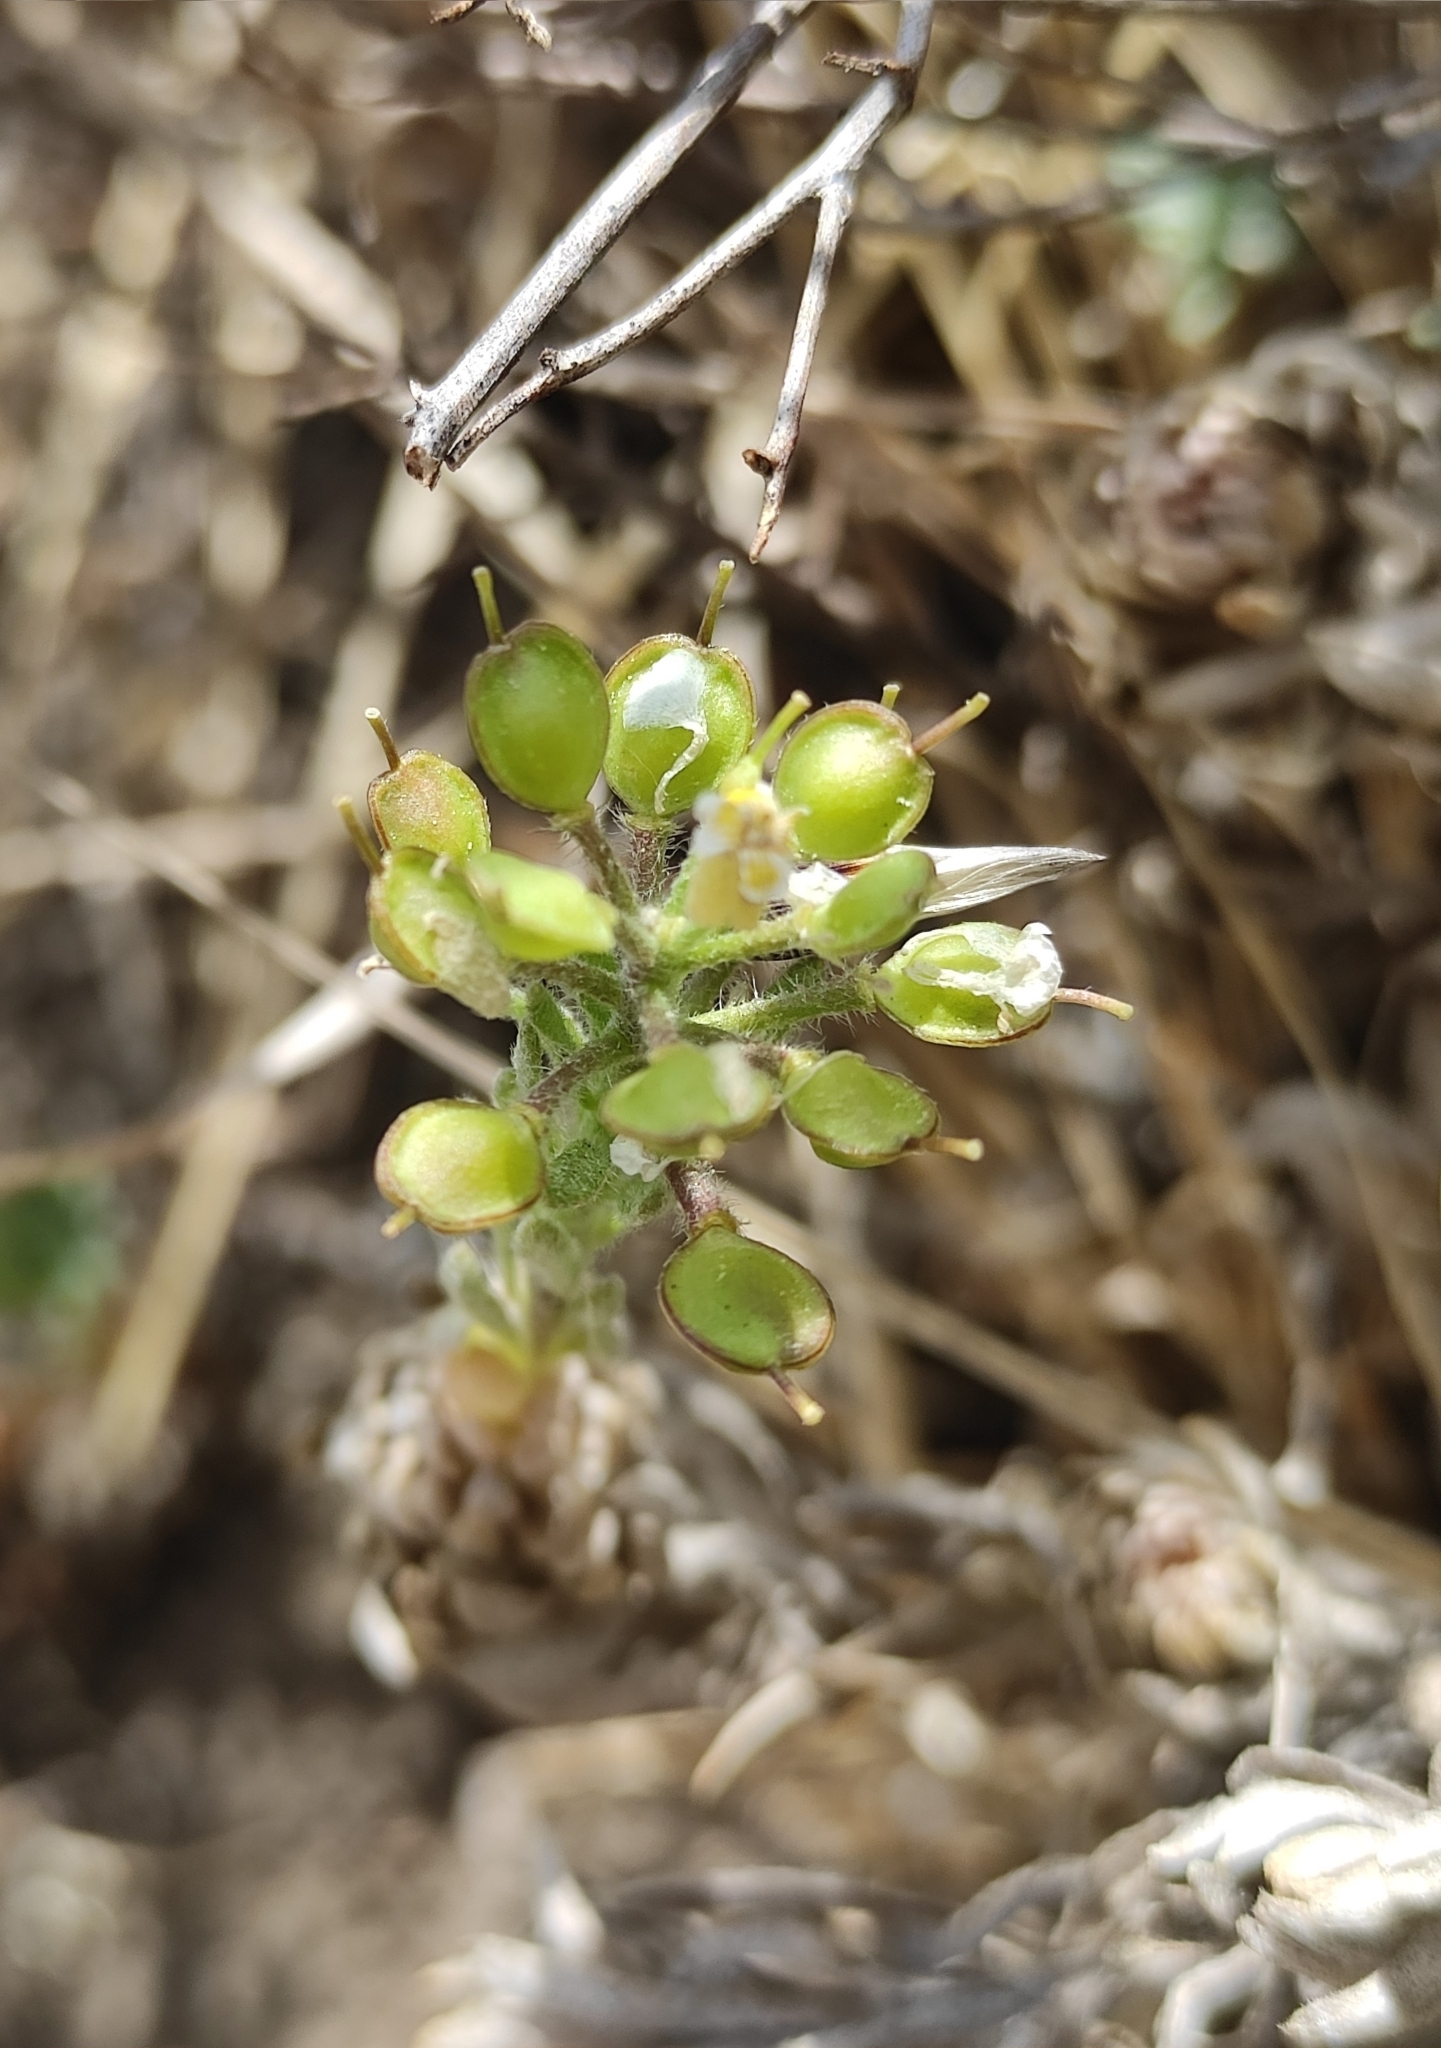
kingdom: Plantae
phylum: Tracheophyta
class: Magnoliopsida
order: Brassicales
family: Brassicaceae
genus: Alyssum
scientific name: Alyssum lenense
